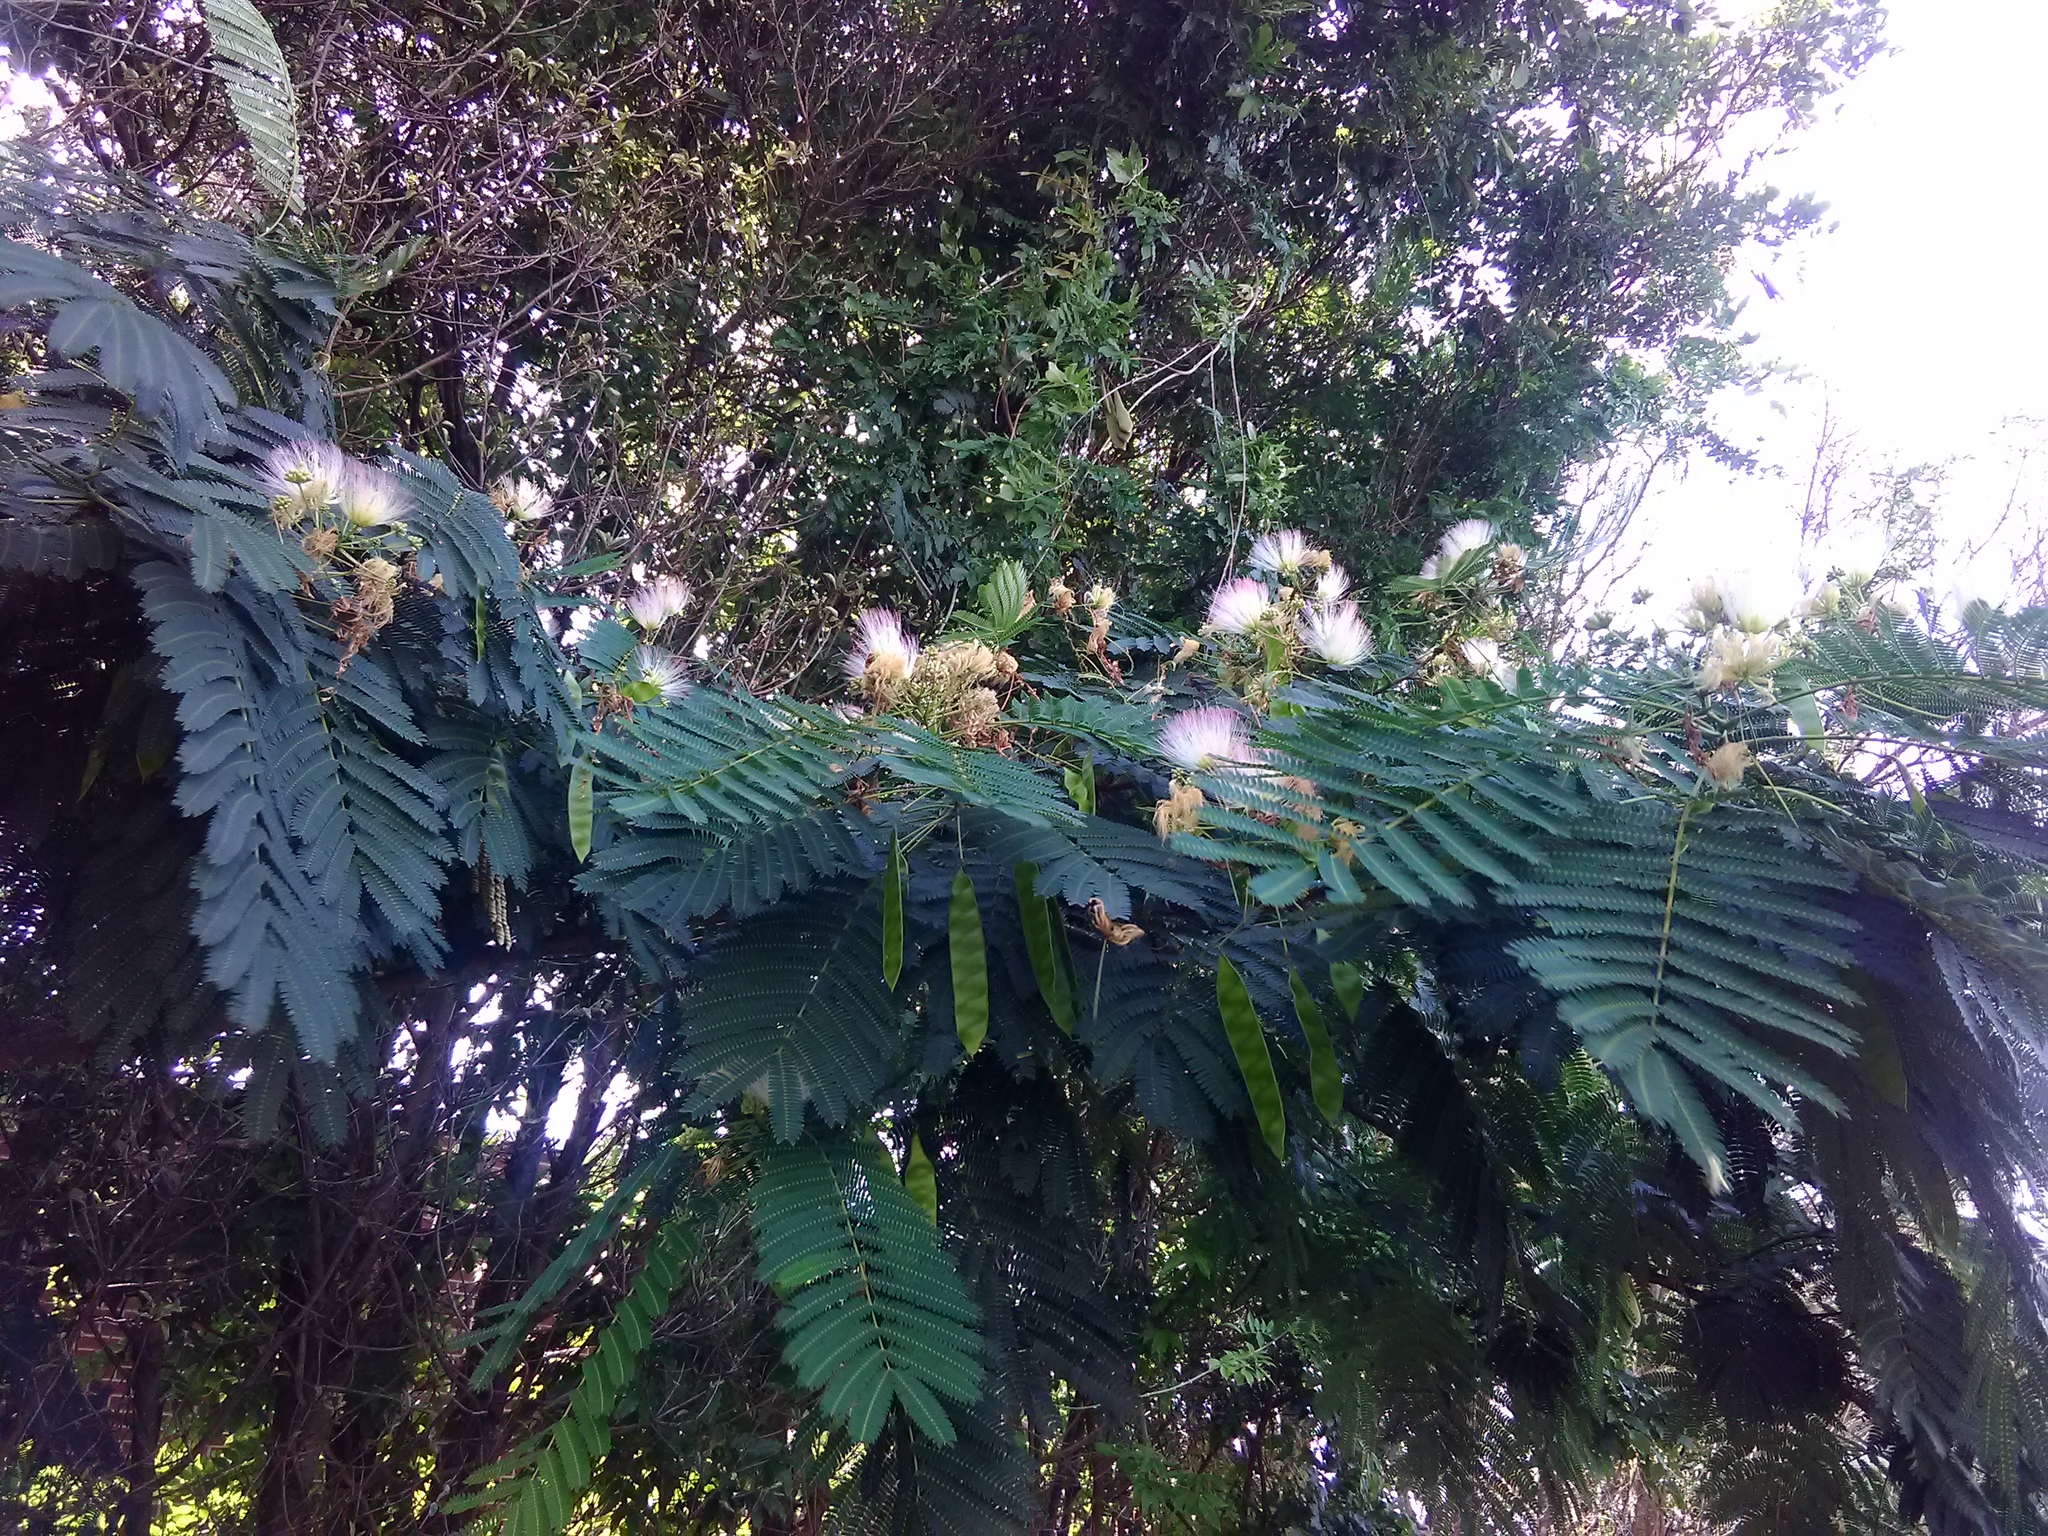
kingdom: Plantae
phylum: Tracheophyta
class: Magnoliopsida
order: Fabales
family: Fabaceae
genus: Albizia
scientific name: Albizia julibrissin
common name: Silktree
